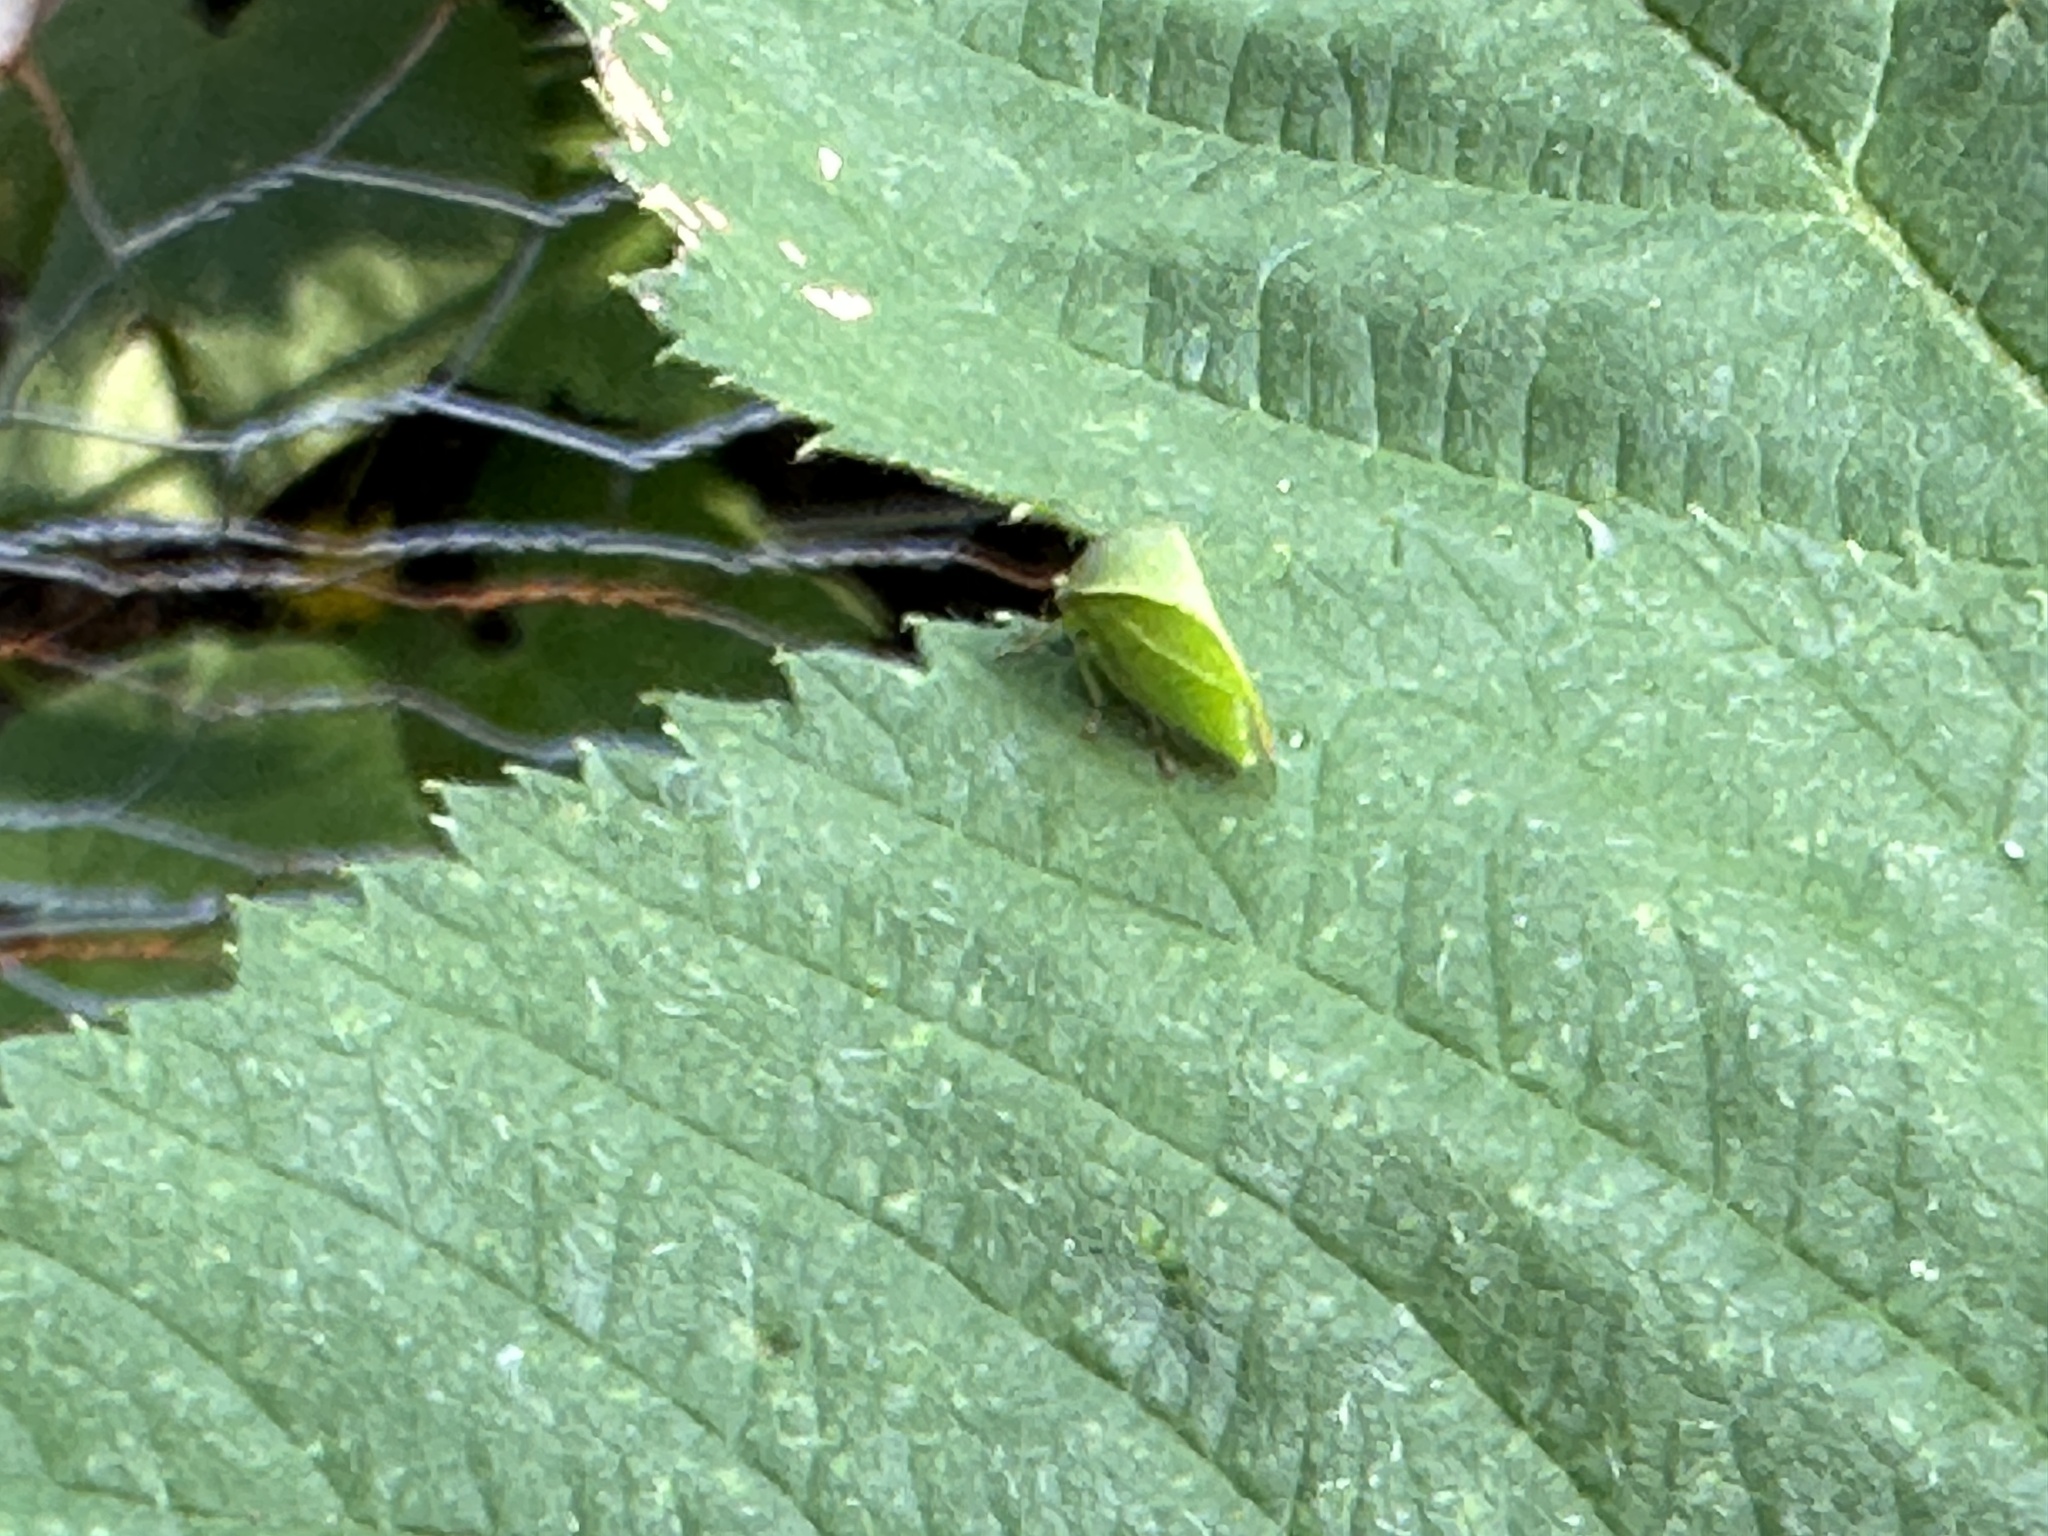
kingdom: Animalia
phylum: Arthropoda
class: Insecta
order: Hemiptera
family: Membracidae
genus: Spissistilus
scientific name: Spissistilus festina
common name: Membracid bug
